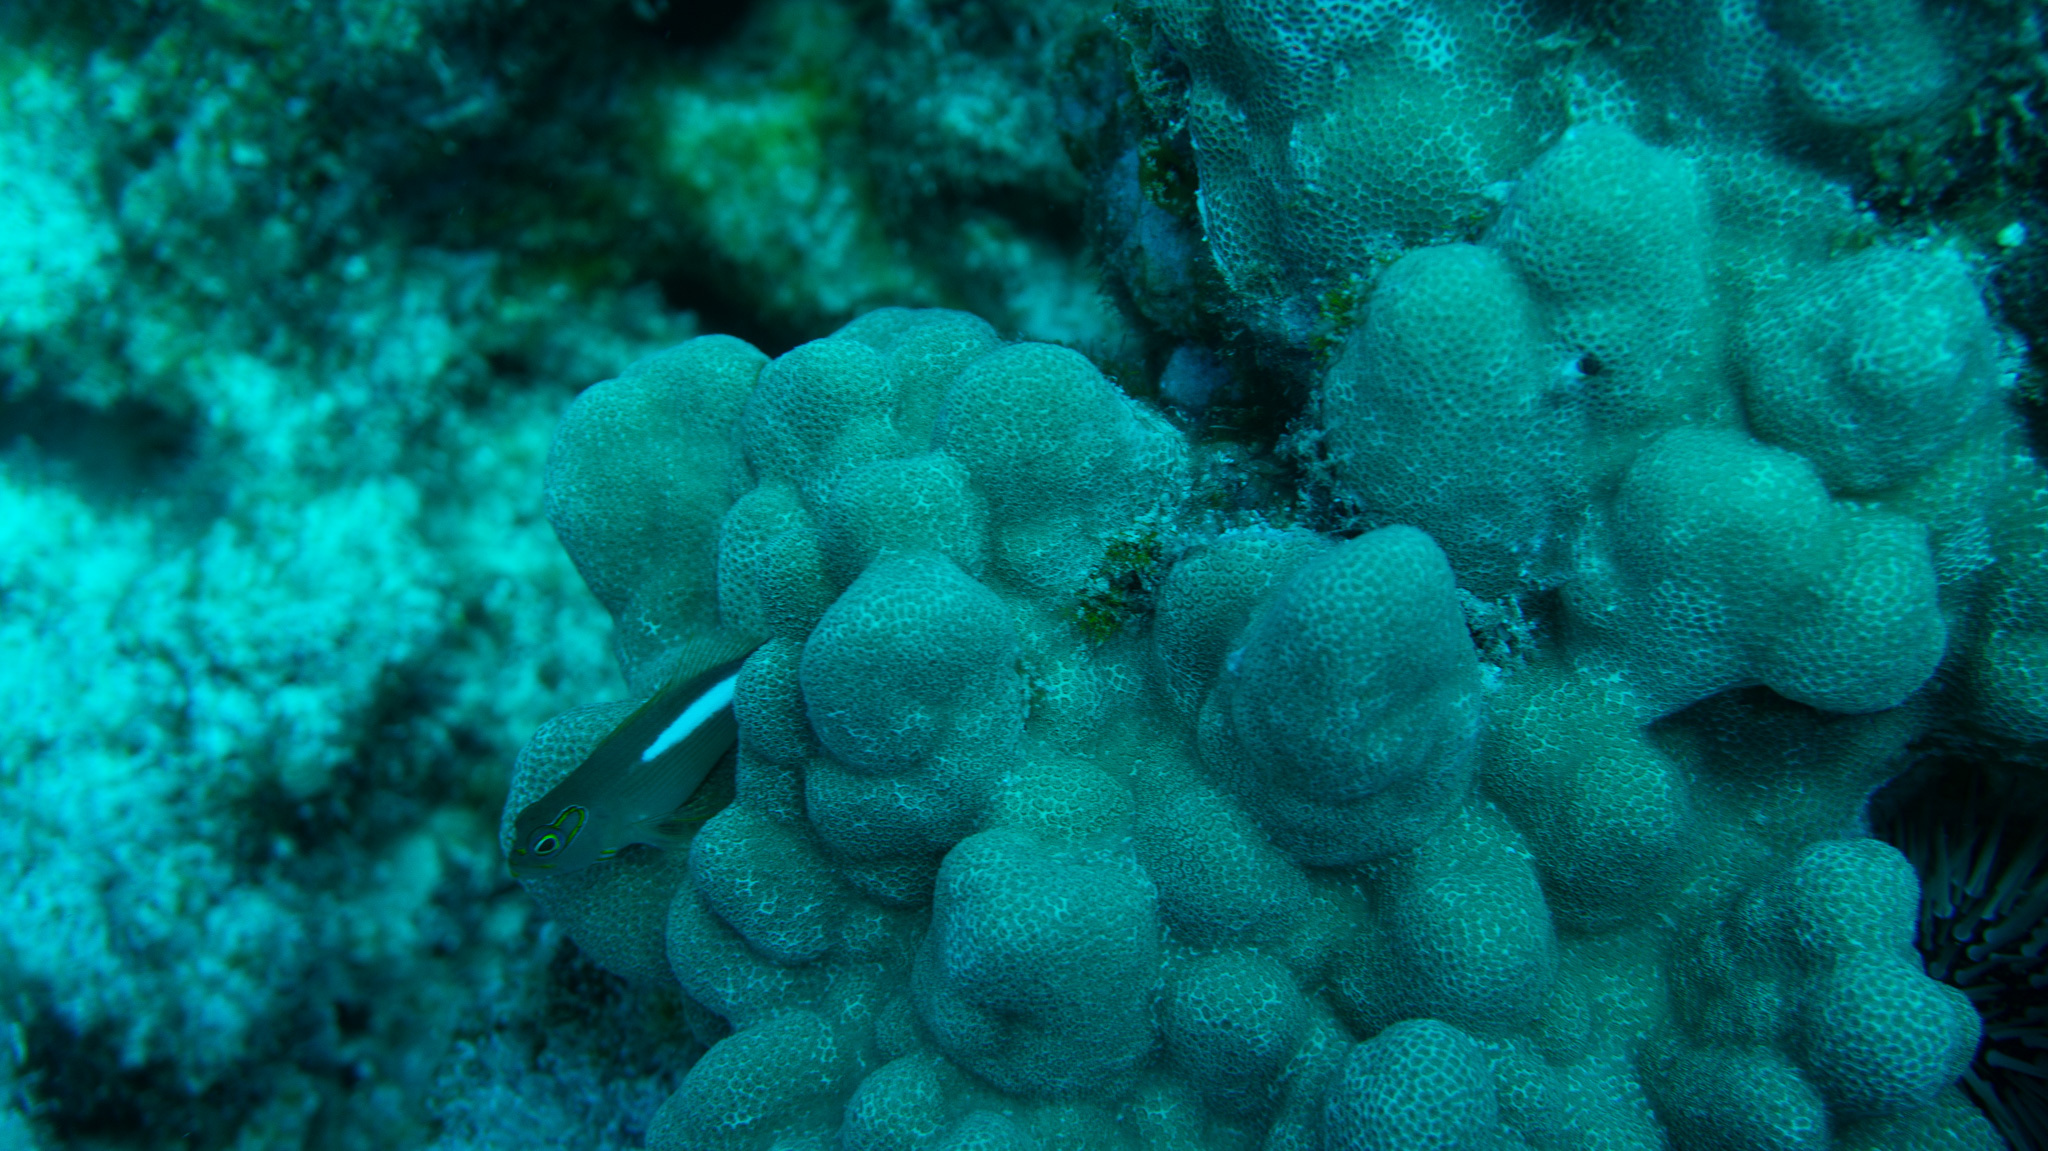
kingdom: Animalia
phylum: Chordata
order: Perciformes
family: Cirrhitidae
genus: Paracirrhites
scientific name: Paracirrhites arcatus
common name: Arc-eye hawkfish
